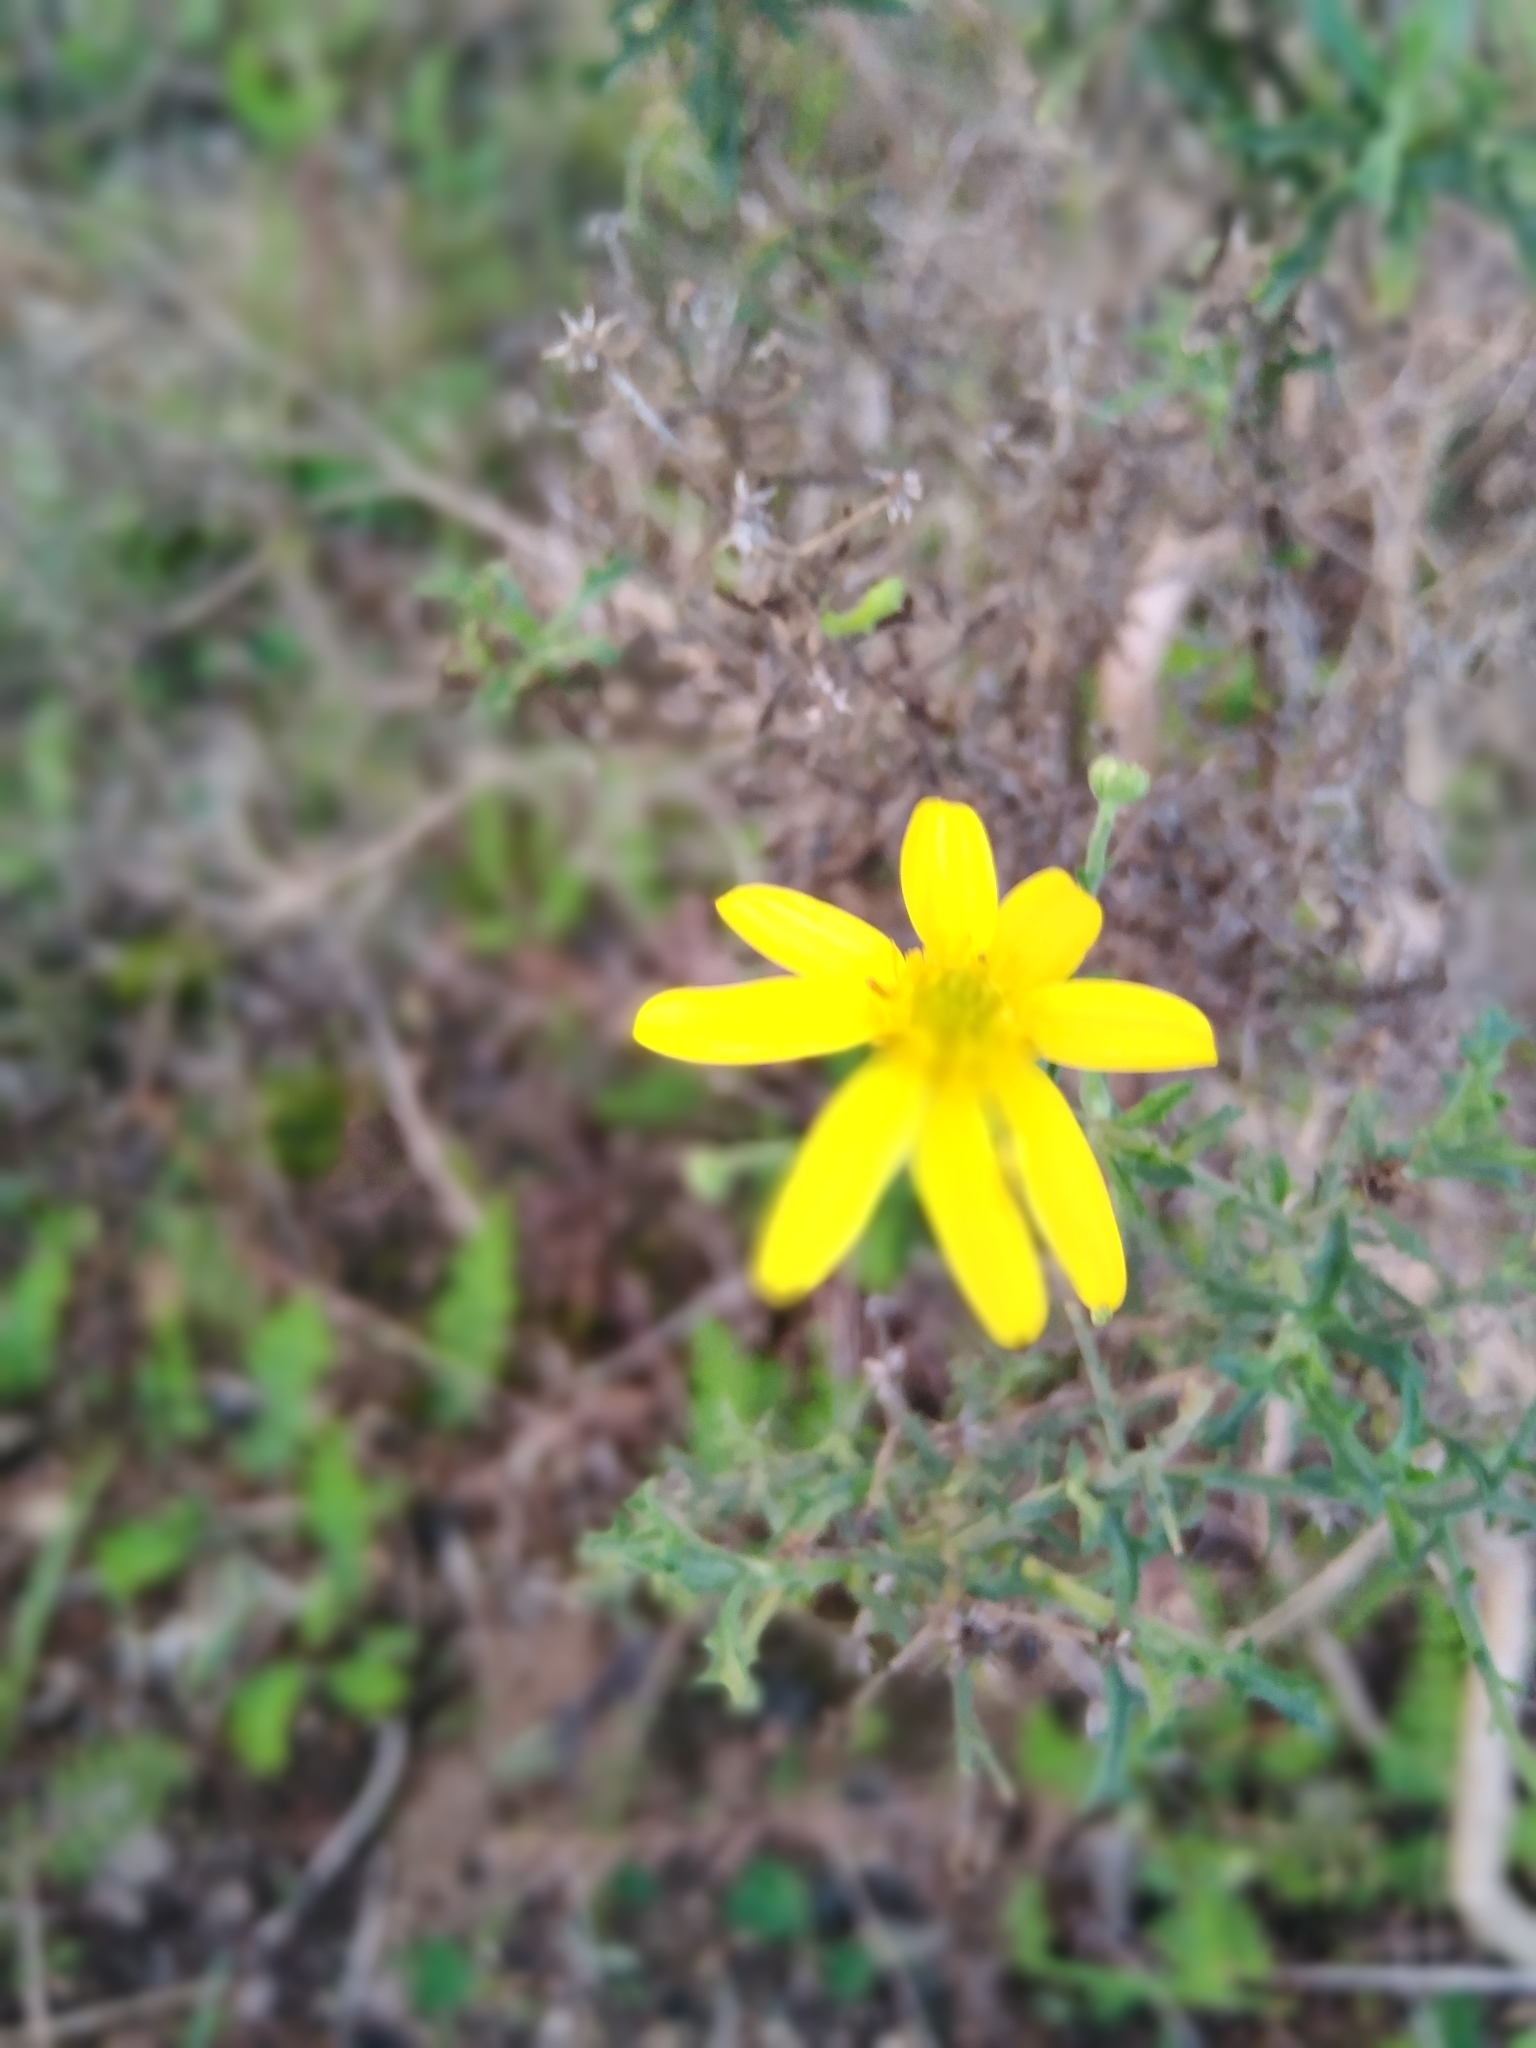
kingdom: Plantae
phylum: Tracheophyta
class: Magnoliopsida
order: Asterales
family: Asteraceae
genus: Osteospermum
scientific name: Osteospermum spinosum
